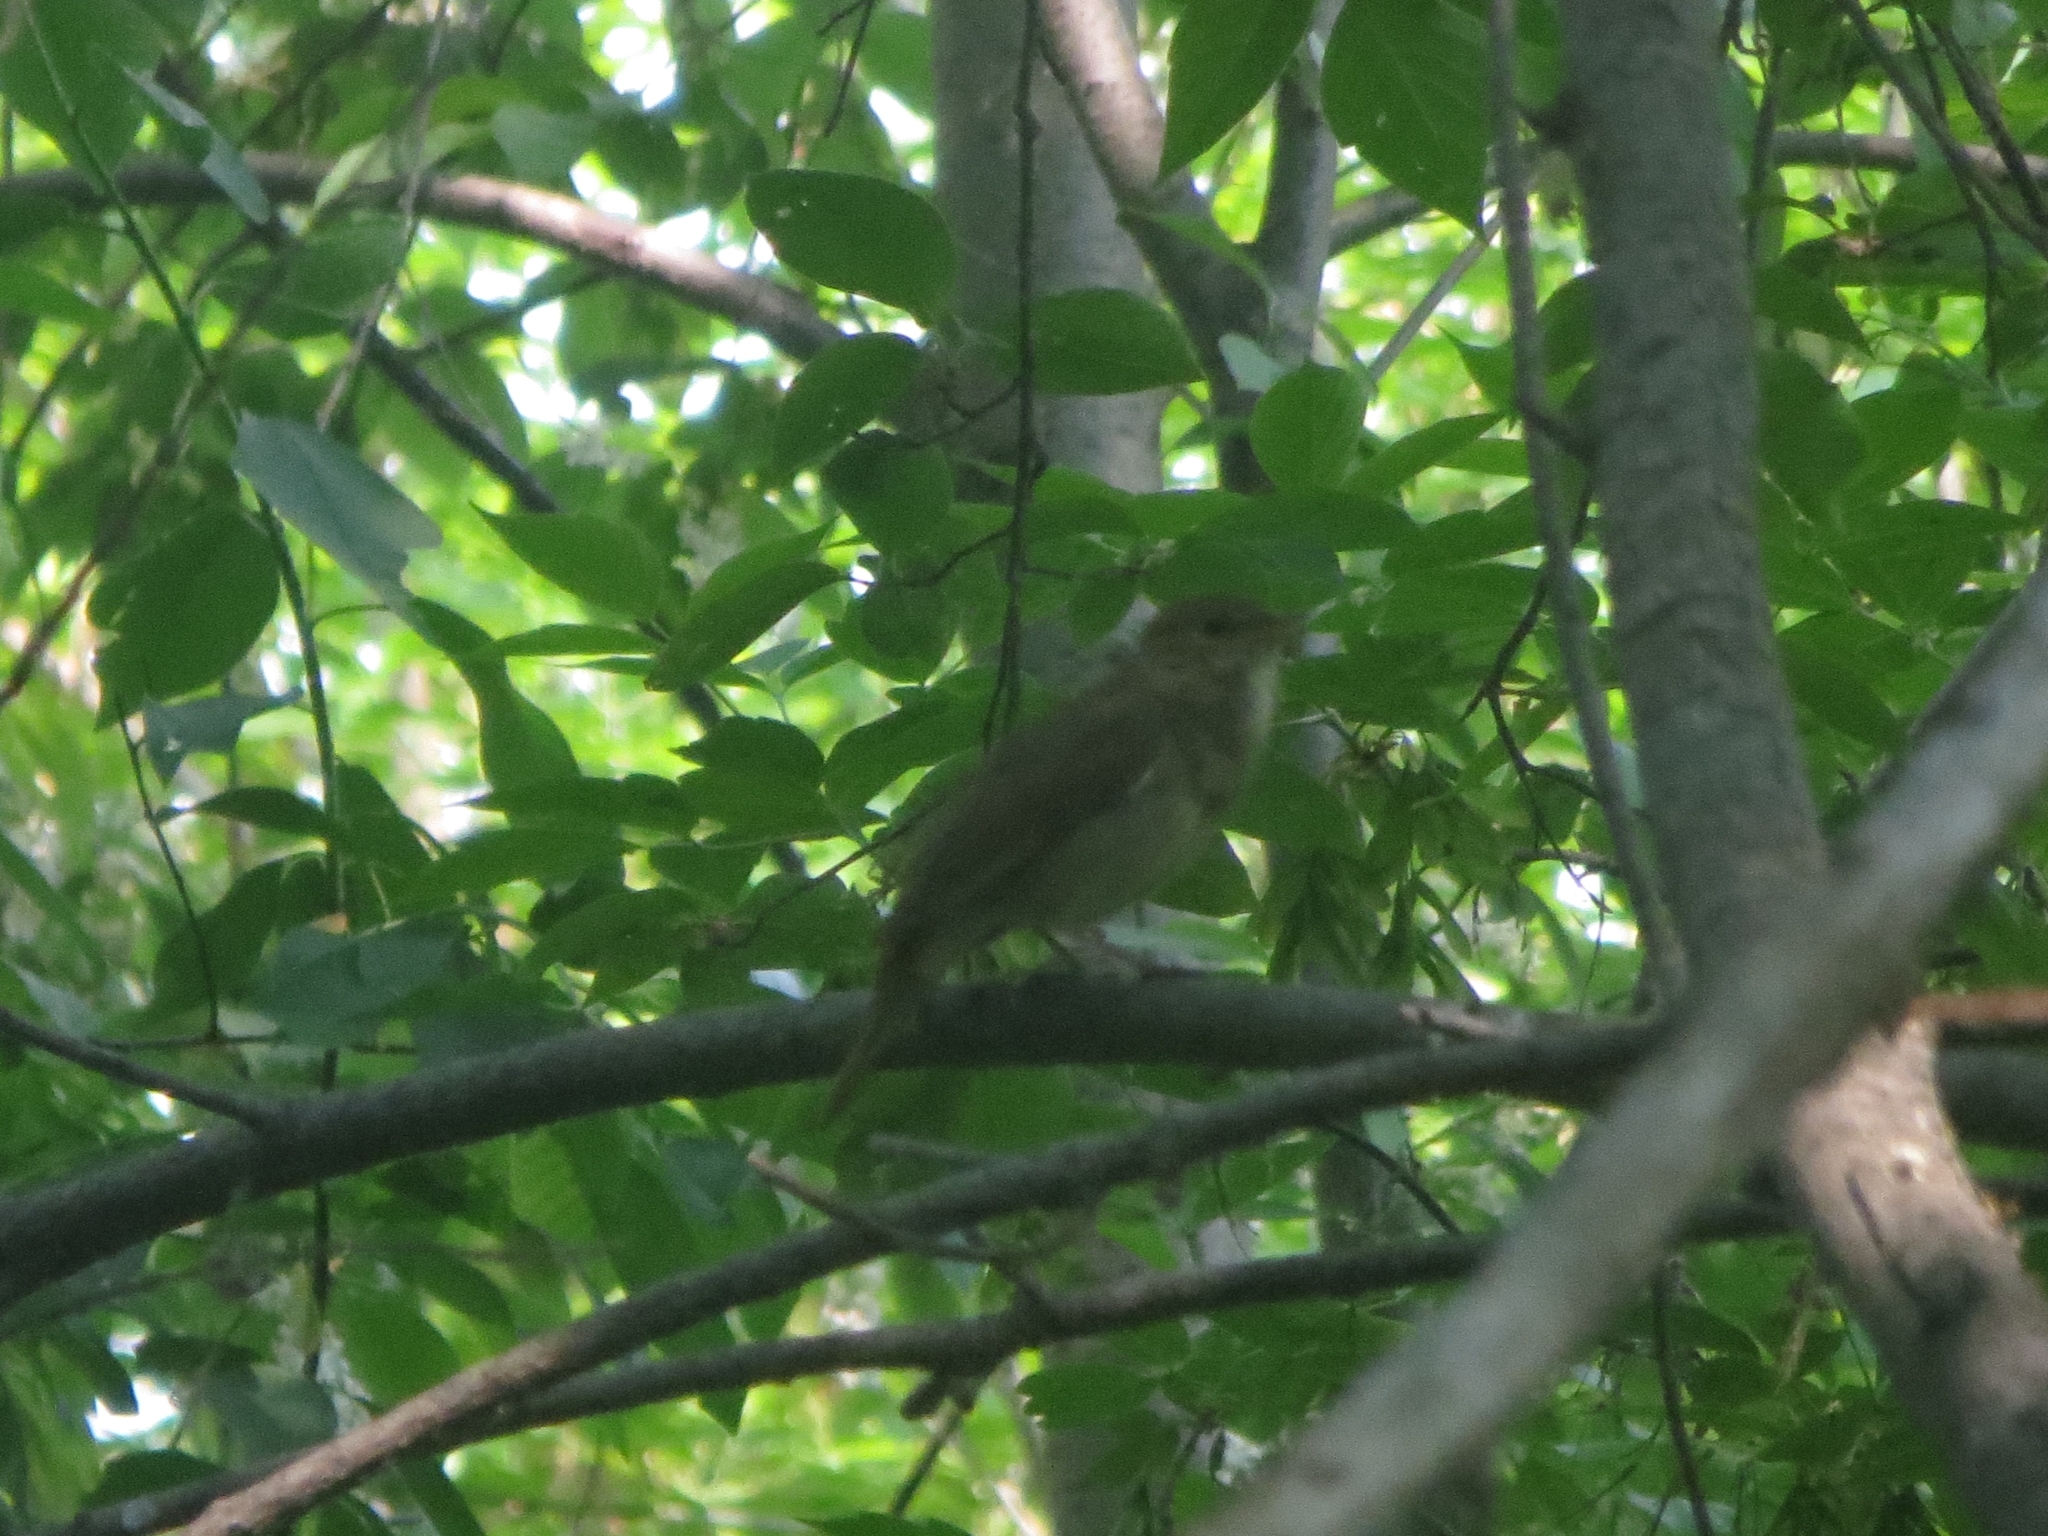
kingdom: Animalia
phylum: Chordata
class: Aves
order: Passeriformes
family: Muscicapidae
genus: Luscinia
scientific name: Luscinia luscinia
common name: Thrush nightingale
